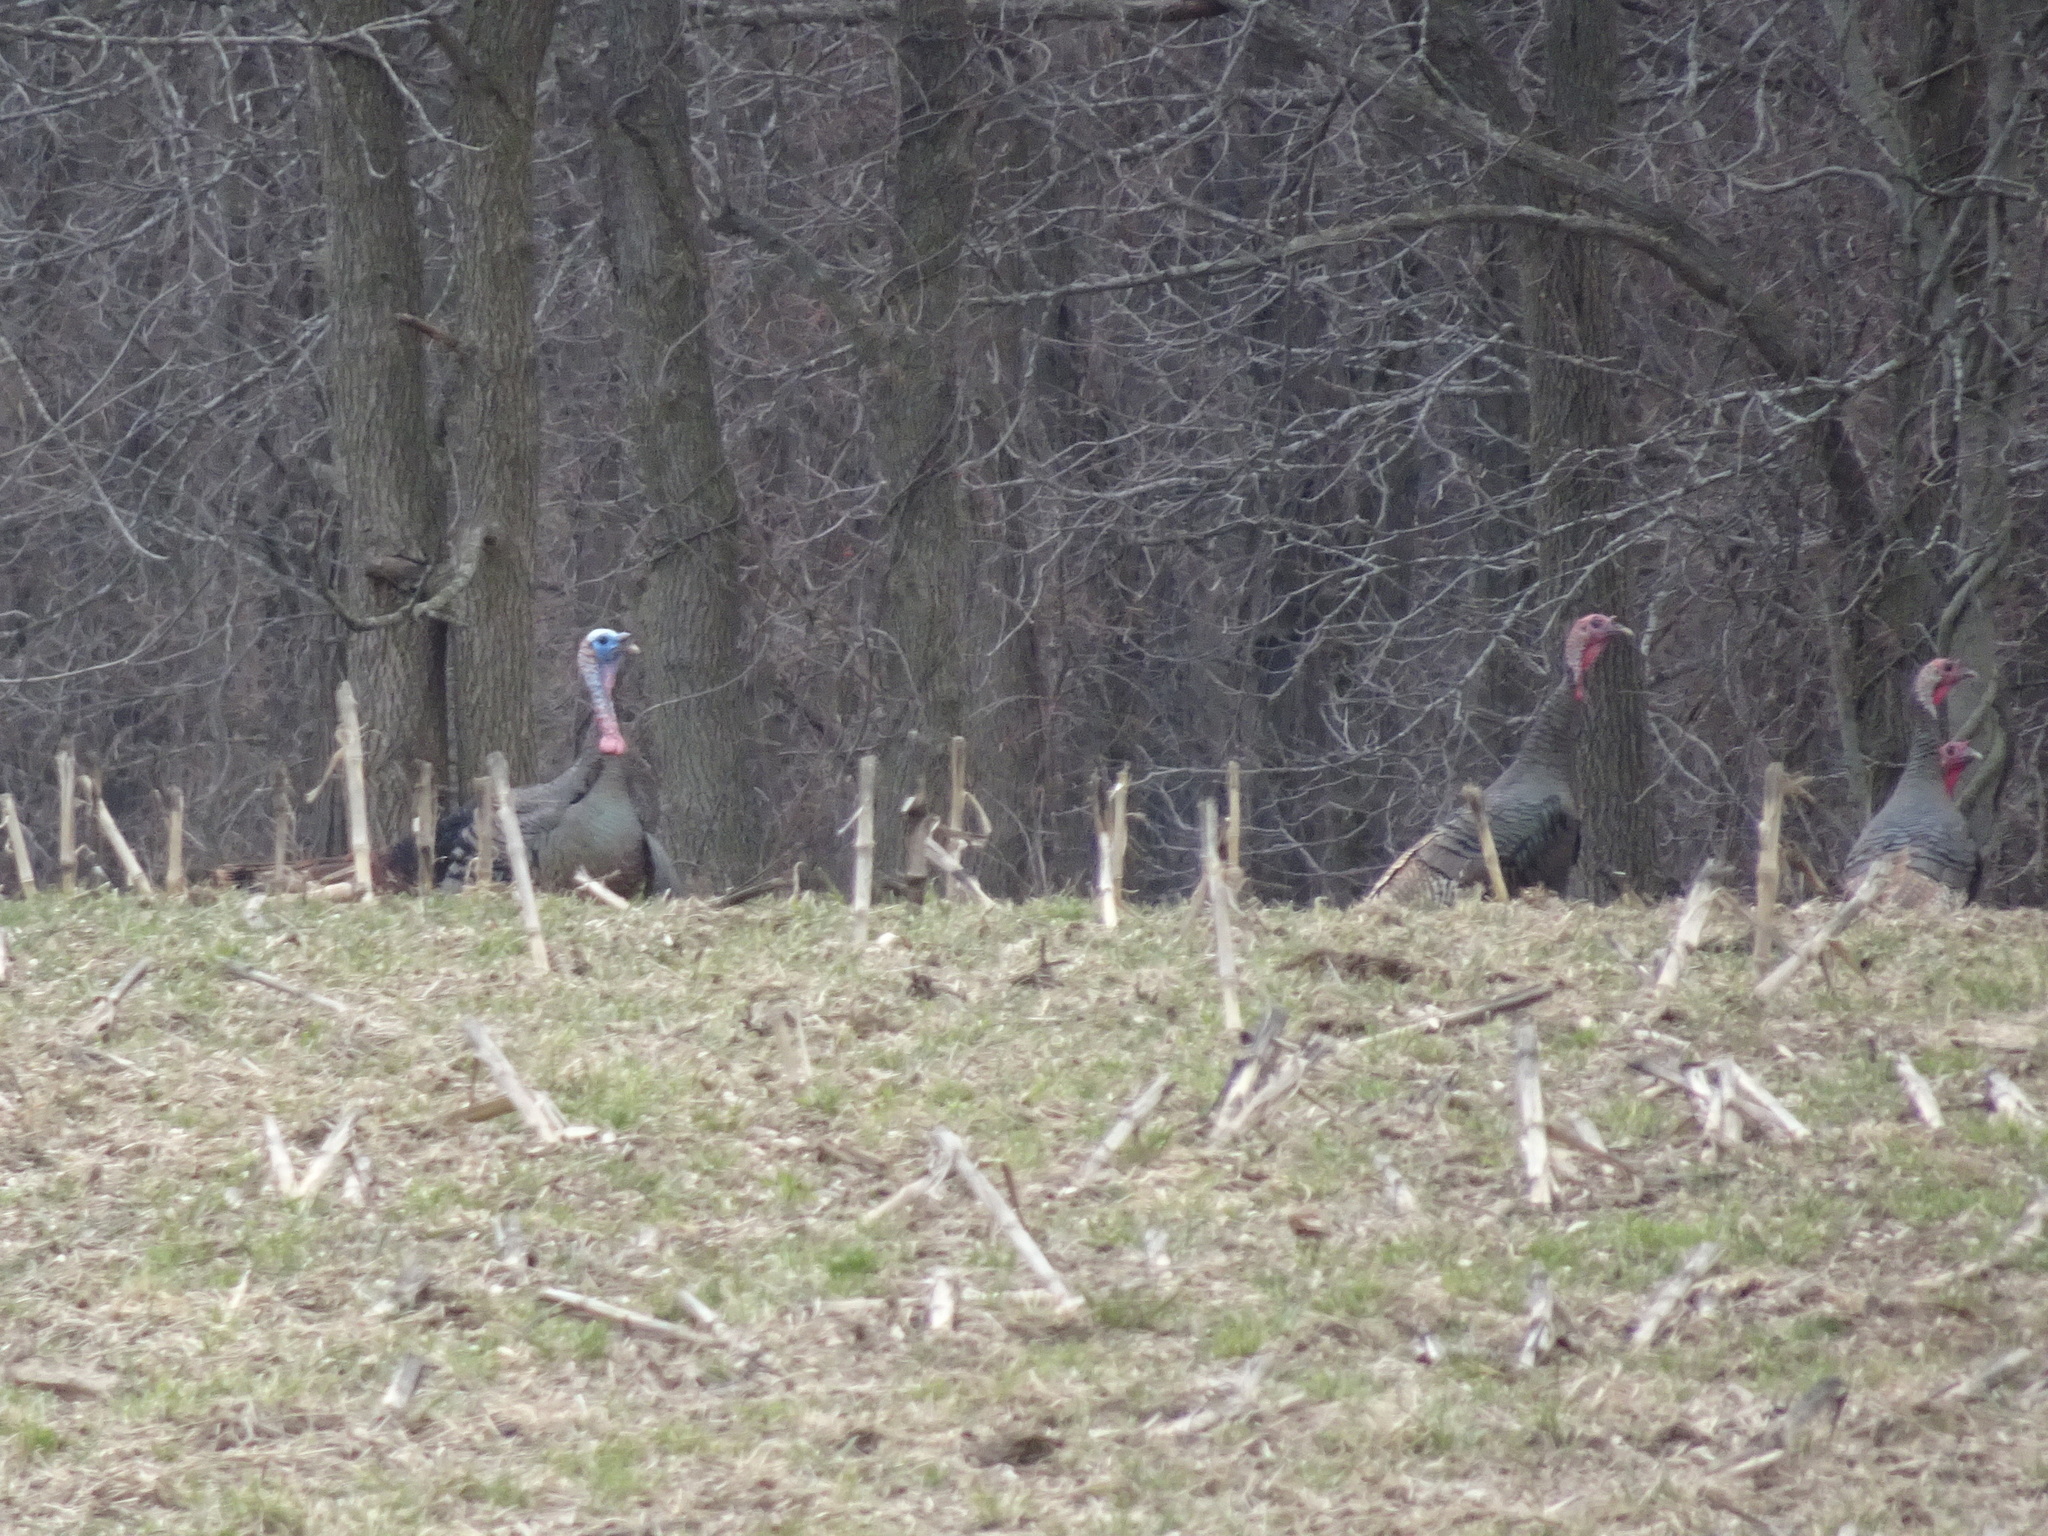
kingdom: Animalia
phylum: Chordata
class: Aves
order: Galliformes
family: Phasianidae
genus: Meleagris
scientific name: Meleagris gallopavo
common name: Wild turkey
